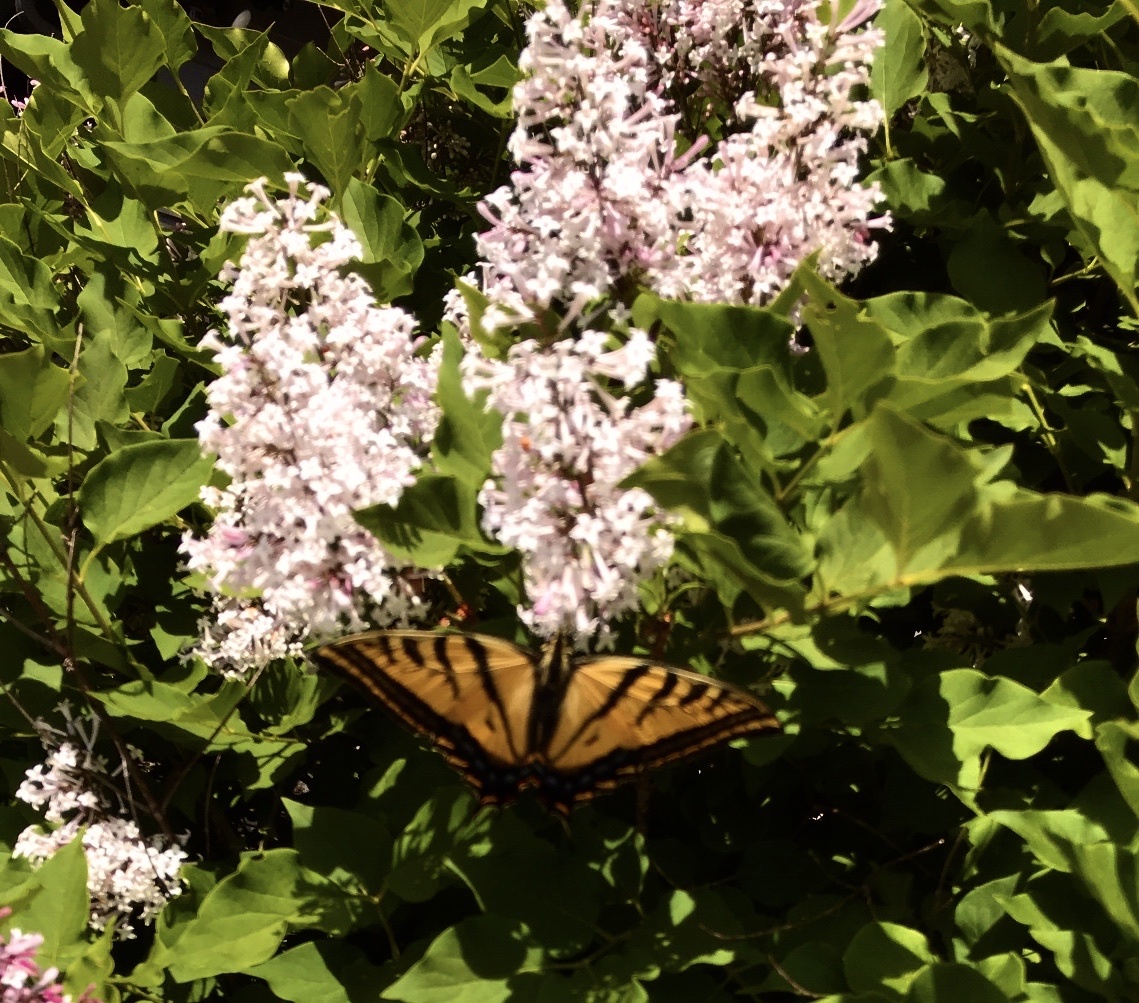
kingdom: Animalia
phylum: Arthropoda
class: Insecta
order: Lepidoptera
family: Papilionidae
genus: Papilio
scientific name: Papilio rutulus
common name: Western tiger swallowtail
